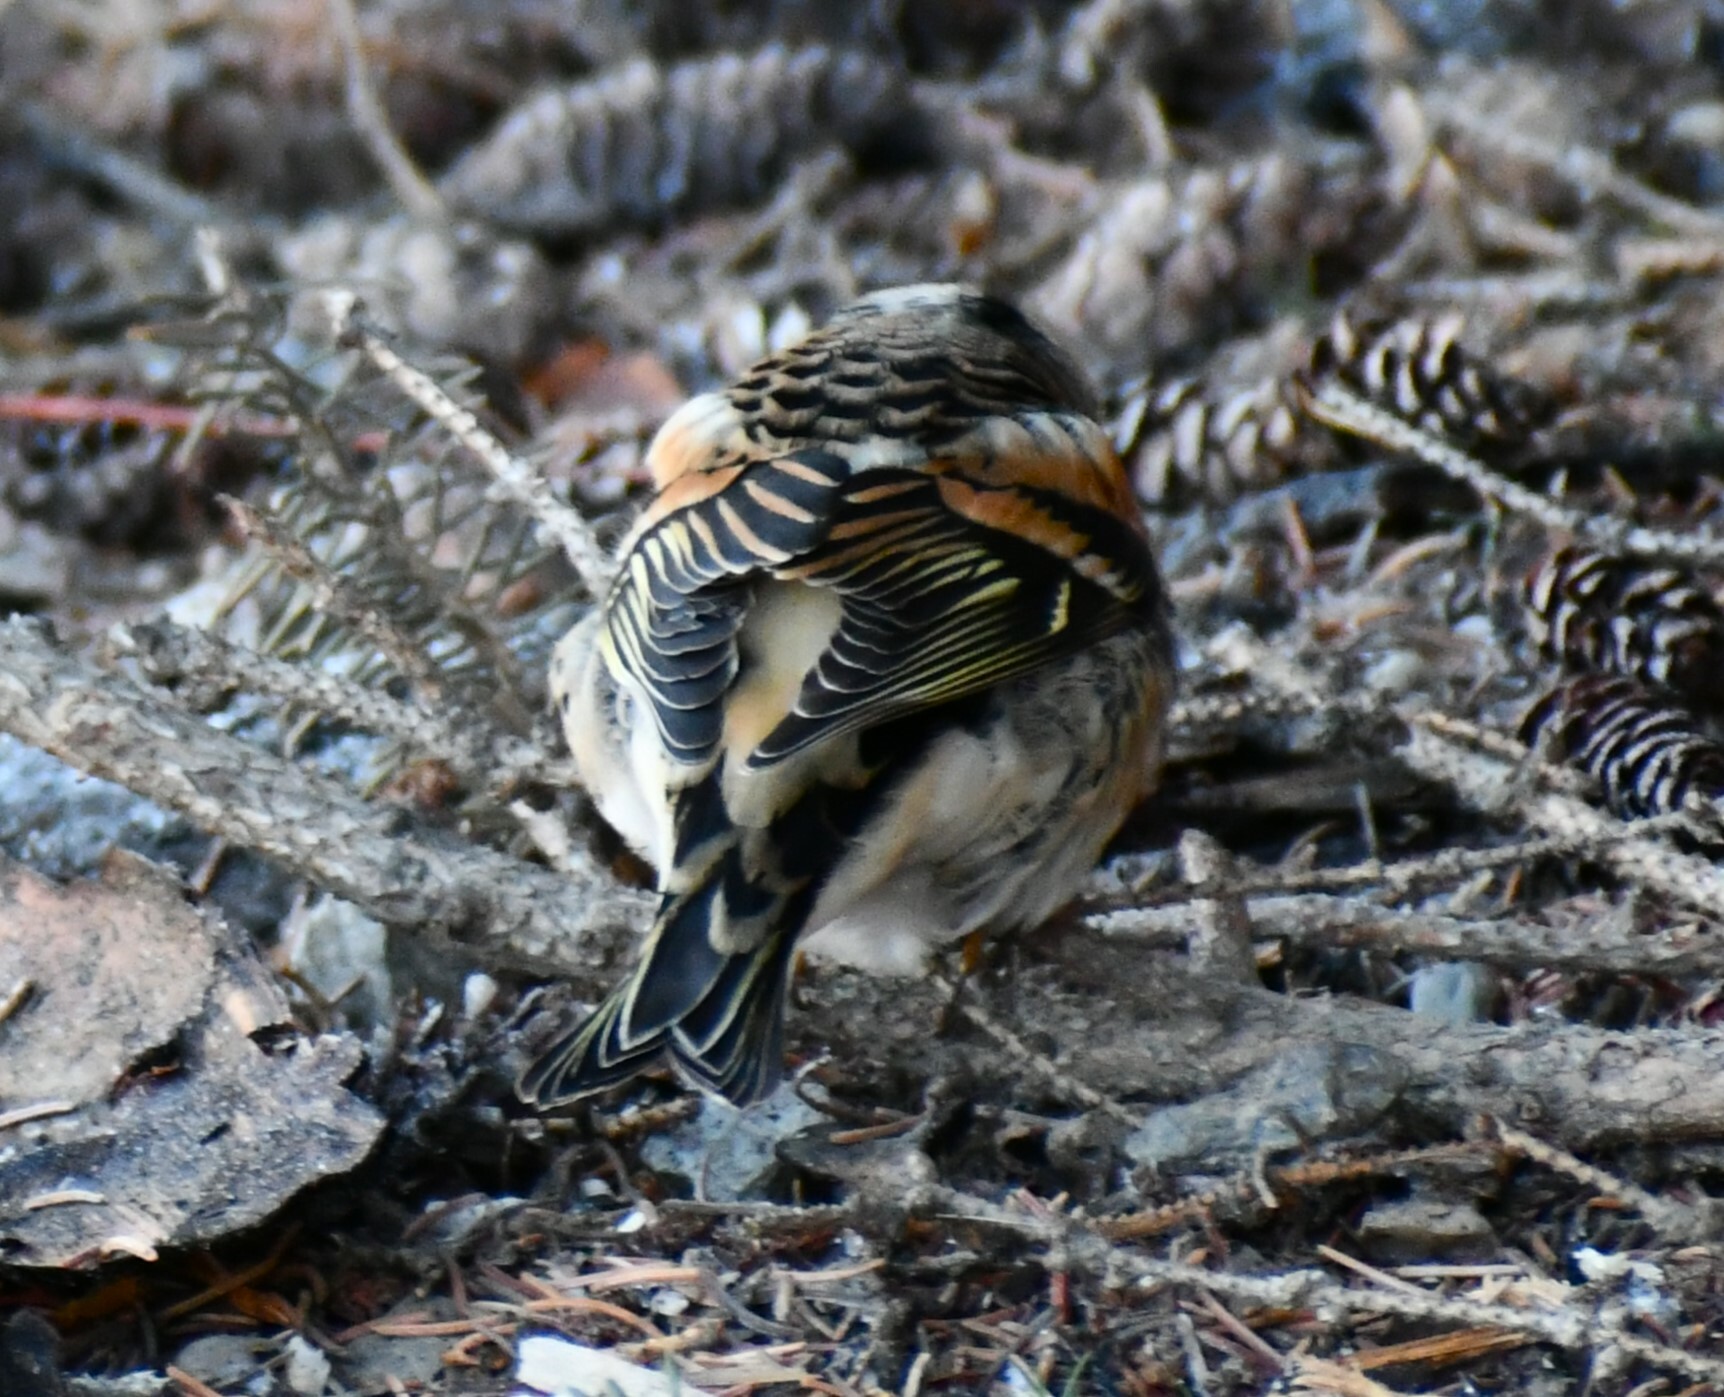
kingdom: Animalia
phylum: Chordata
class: Aves
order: Passeriformes
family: Fringillidae
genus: Fringilla
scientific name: Fringilla montifringilla
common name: Brambling
